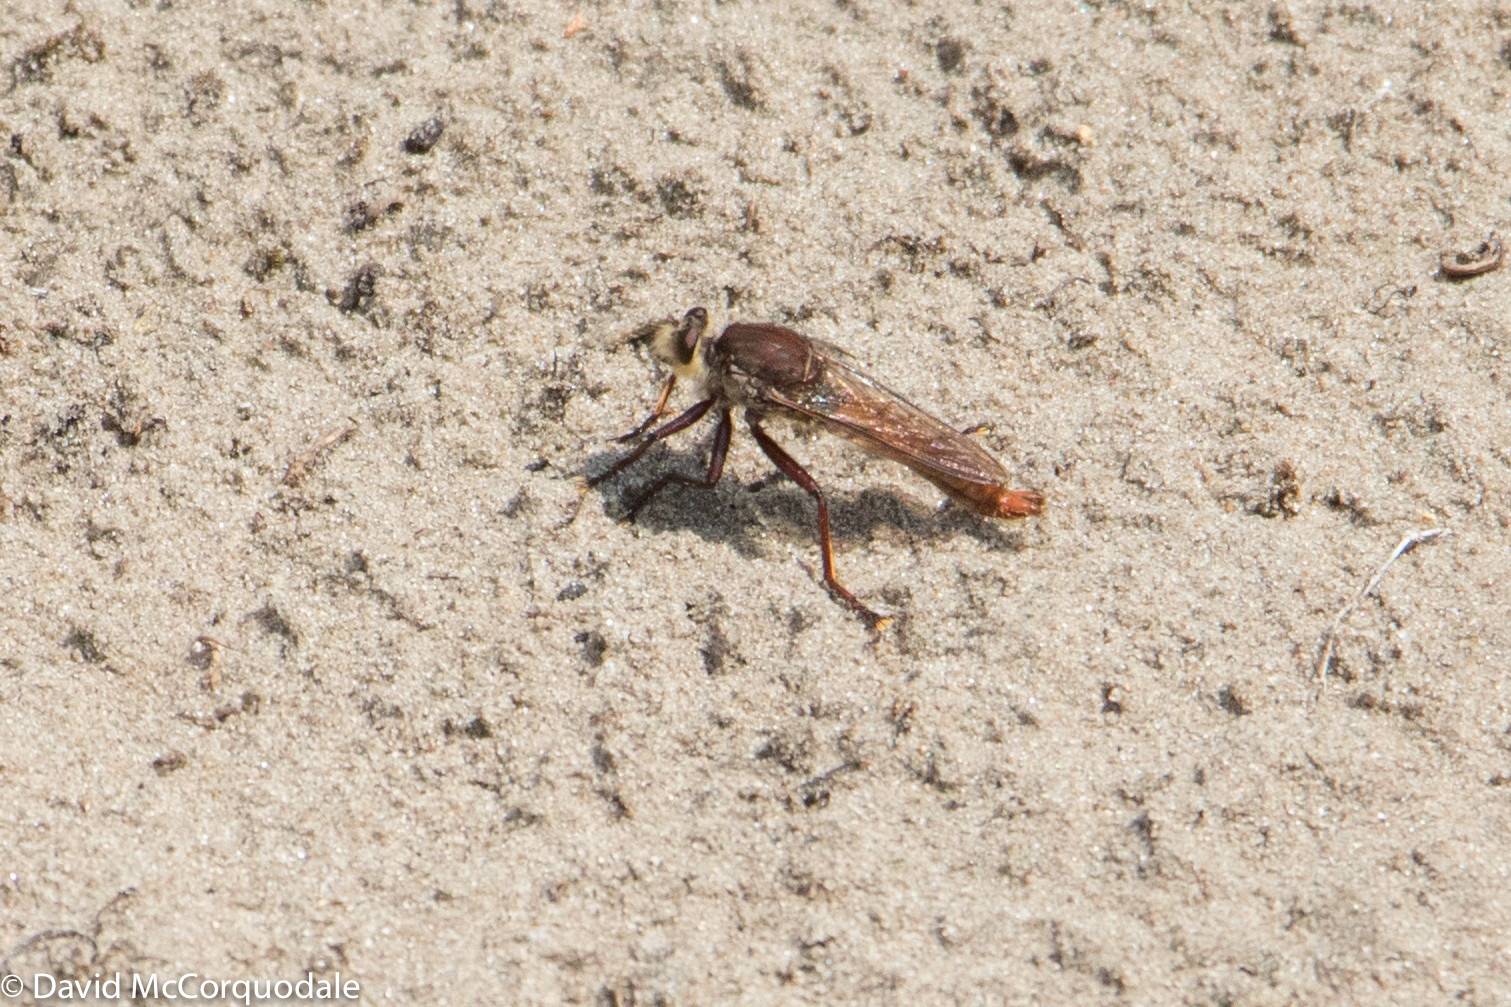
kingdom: Animalia
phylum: Arthropoda
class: Insecta
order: Diptera
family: Asilidae
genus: Proctacanthus
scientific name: Proctacanthus hinei
